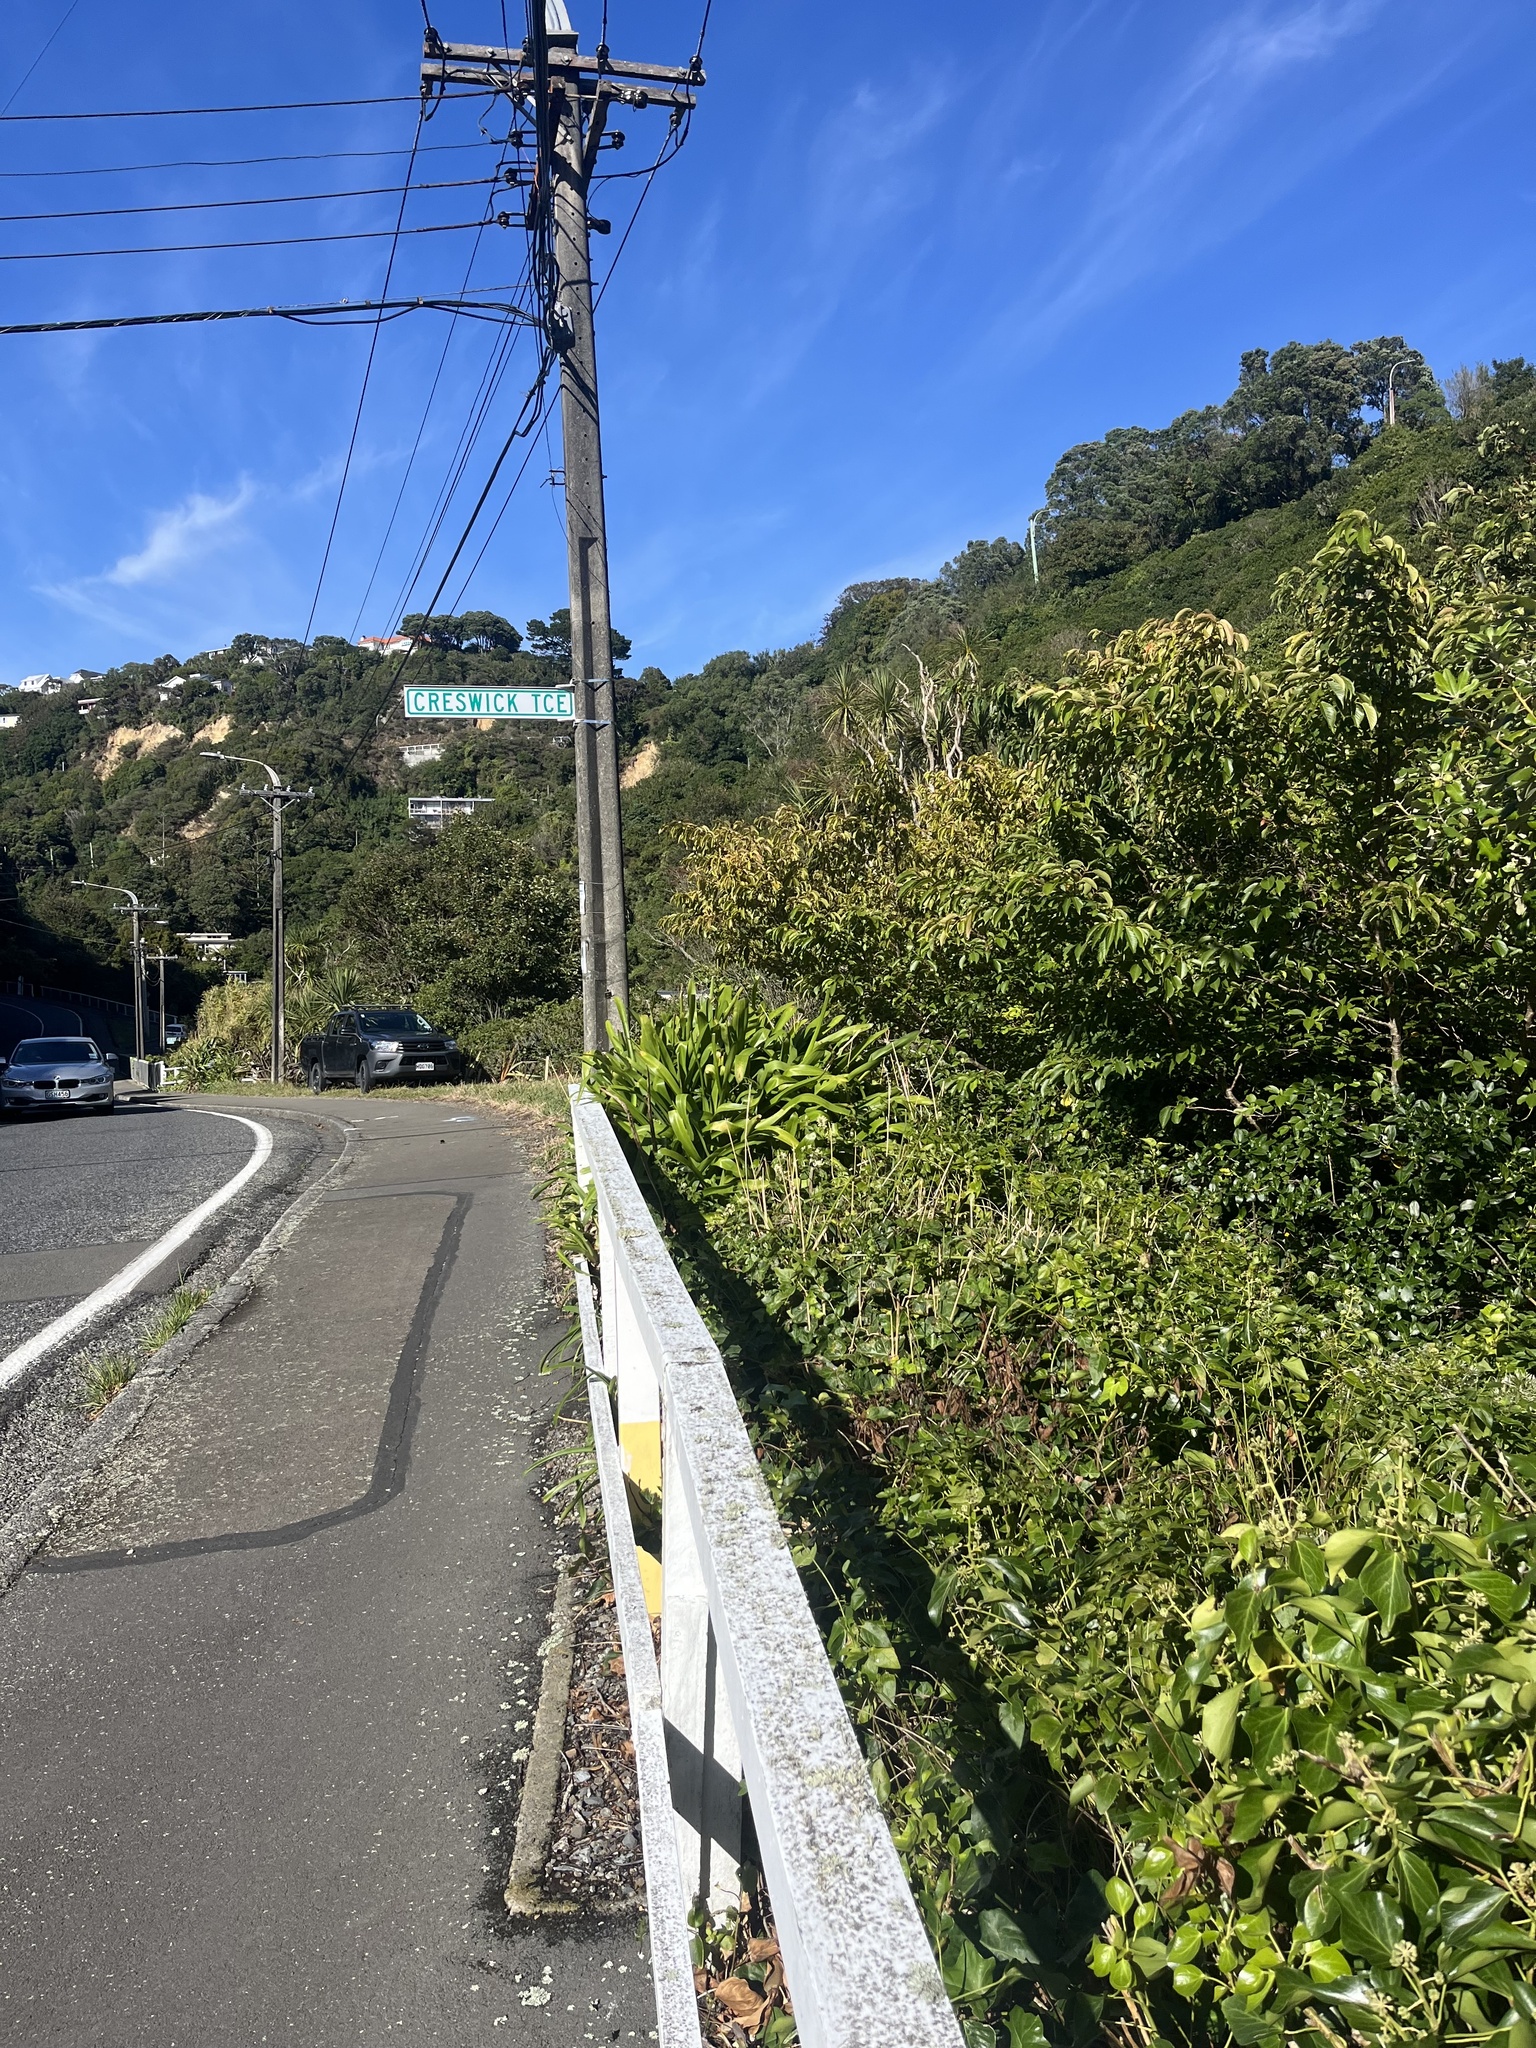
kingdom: Plantae
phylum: Tracheophyta
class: Magnoliopsida
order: Ranunculales
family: Ranunculaceae
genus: Clematis
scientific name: Clematis vitalba
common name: Evergreen clematis
